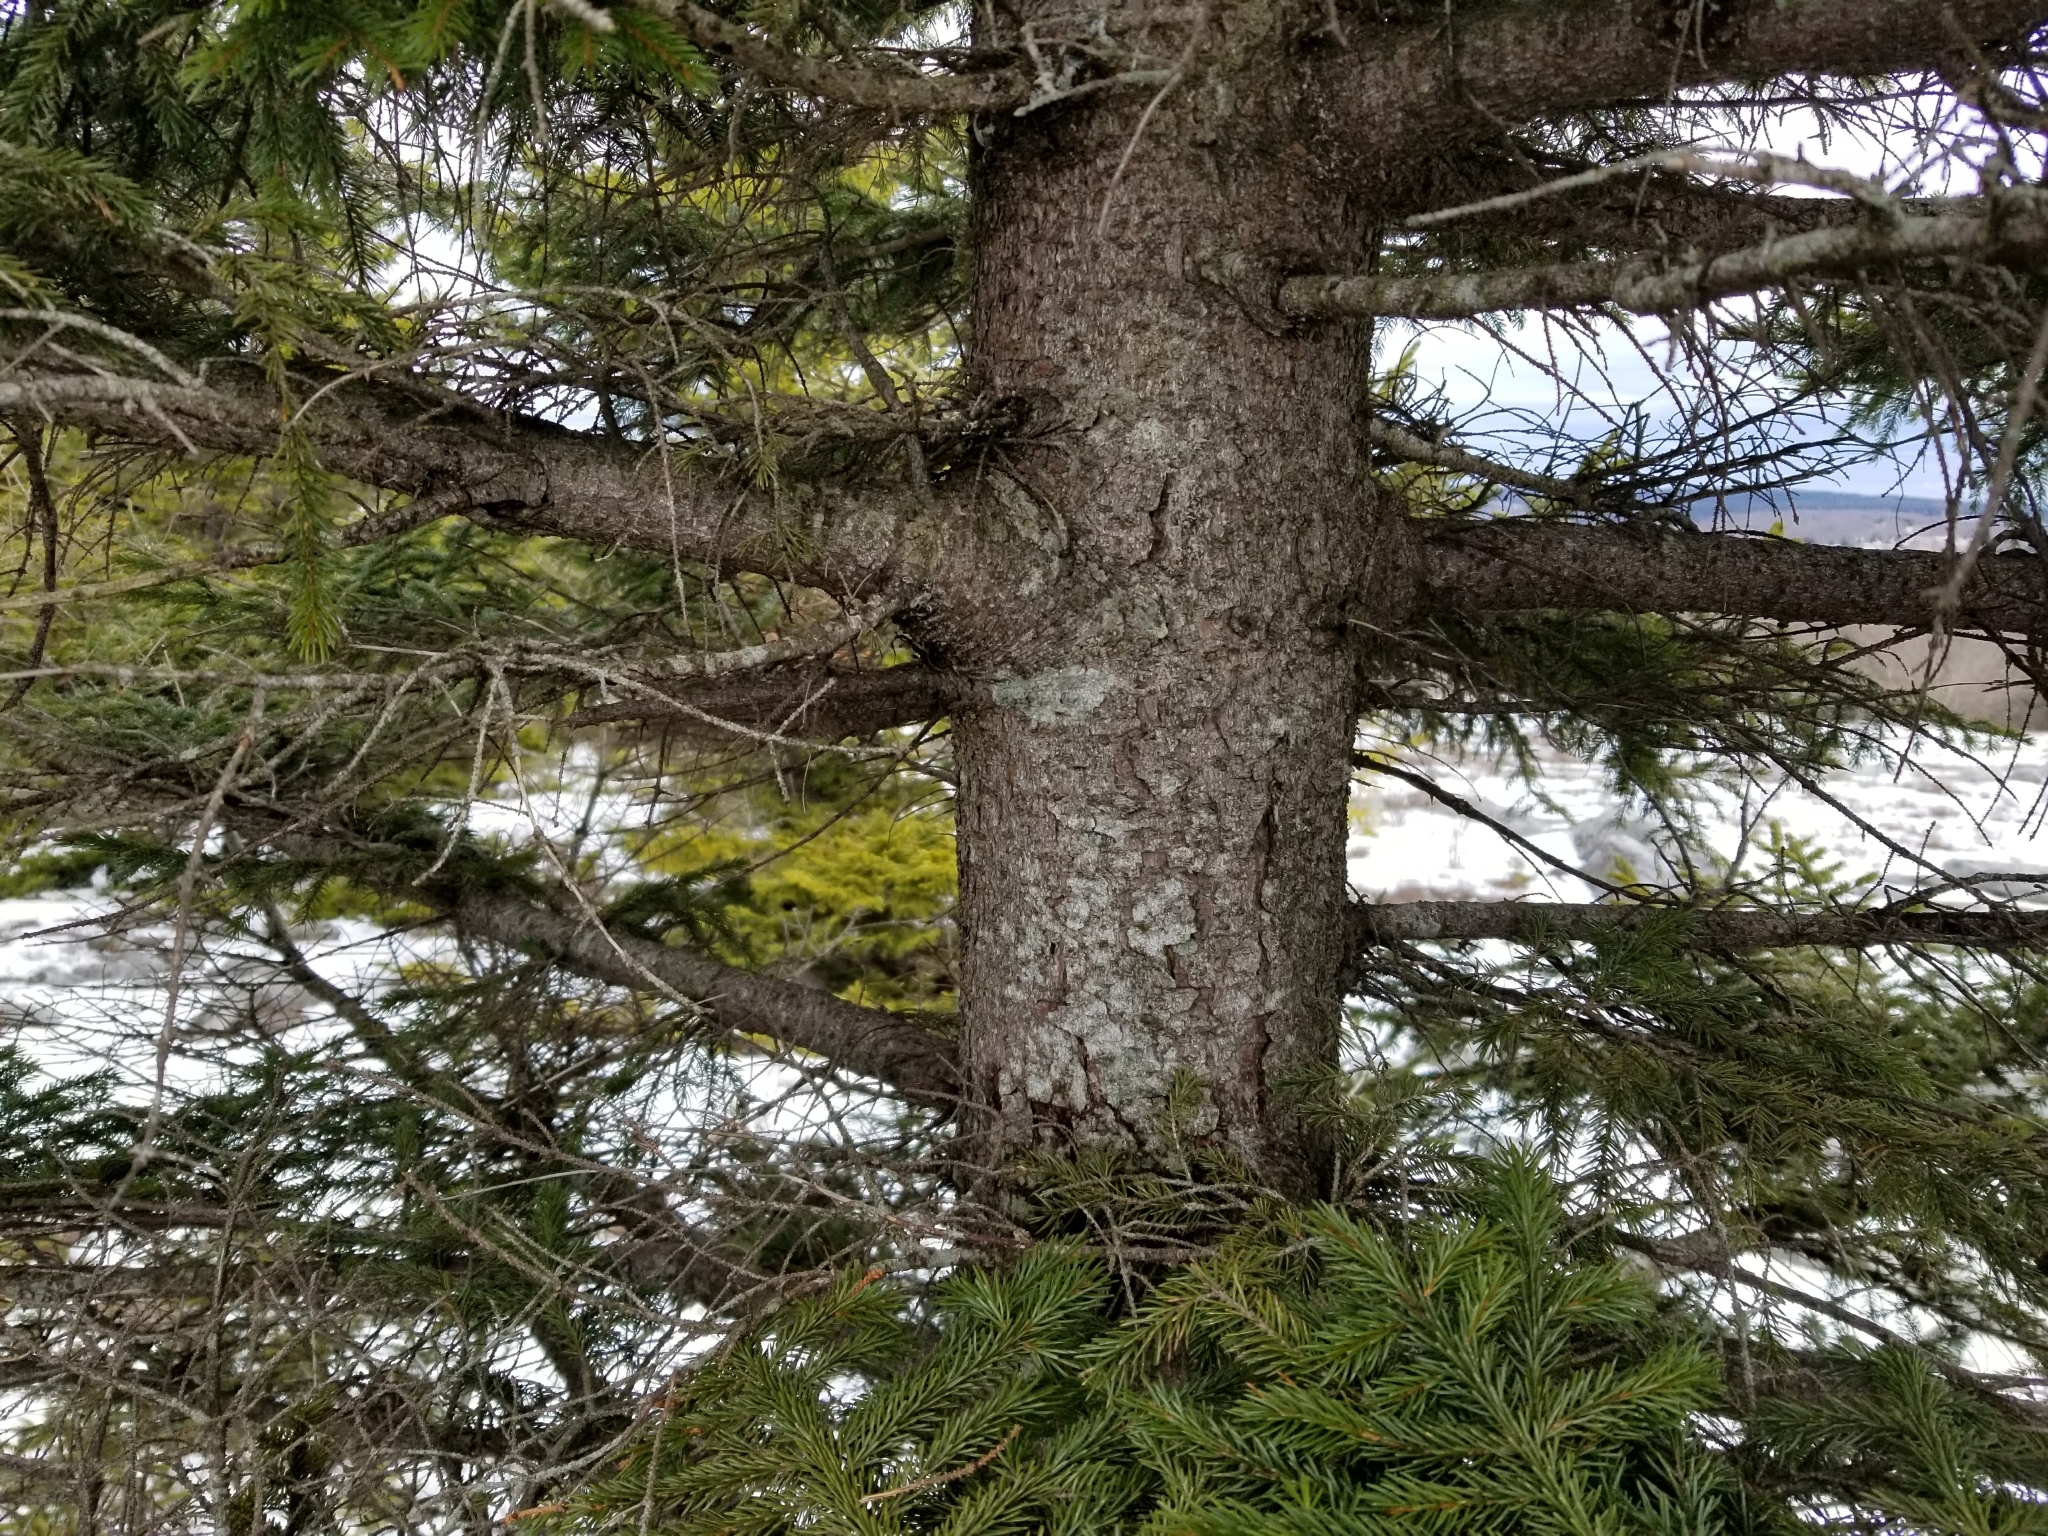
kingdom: Plantae
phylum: Tracheophyta
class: Pinopsida
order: Pinales
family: Pinaceae
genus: Picea
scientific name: Picea rubens
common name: Red spruce
